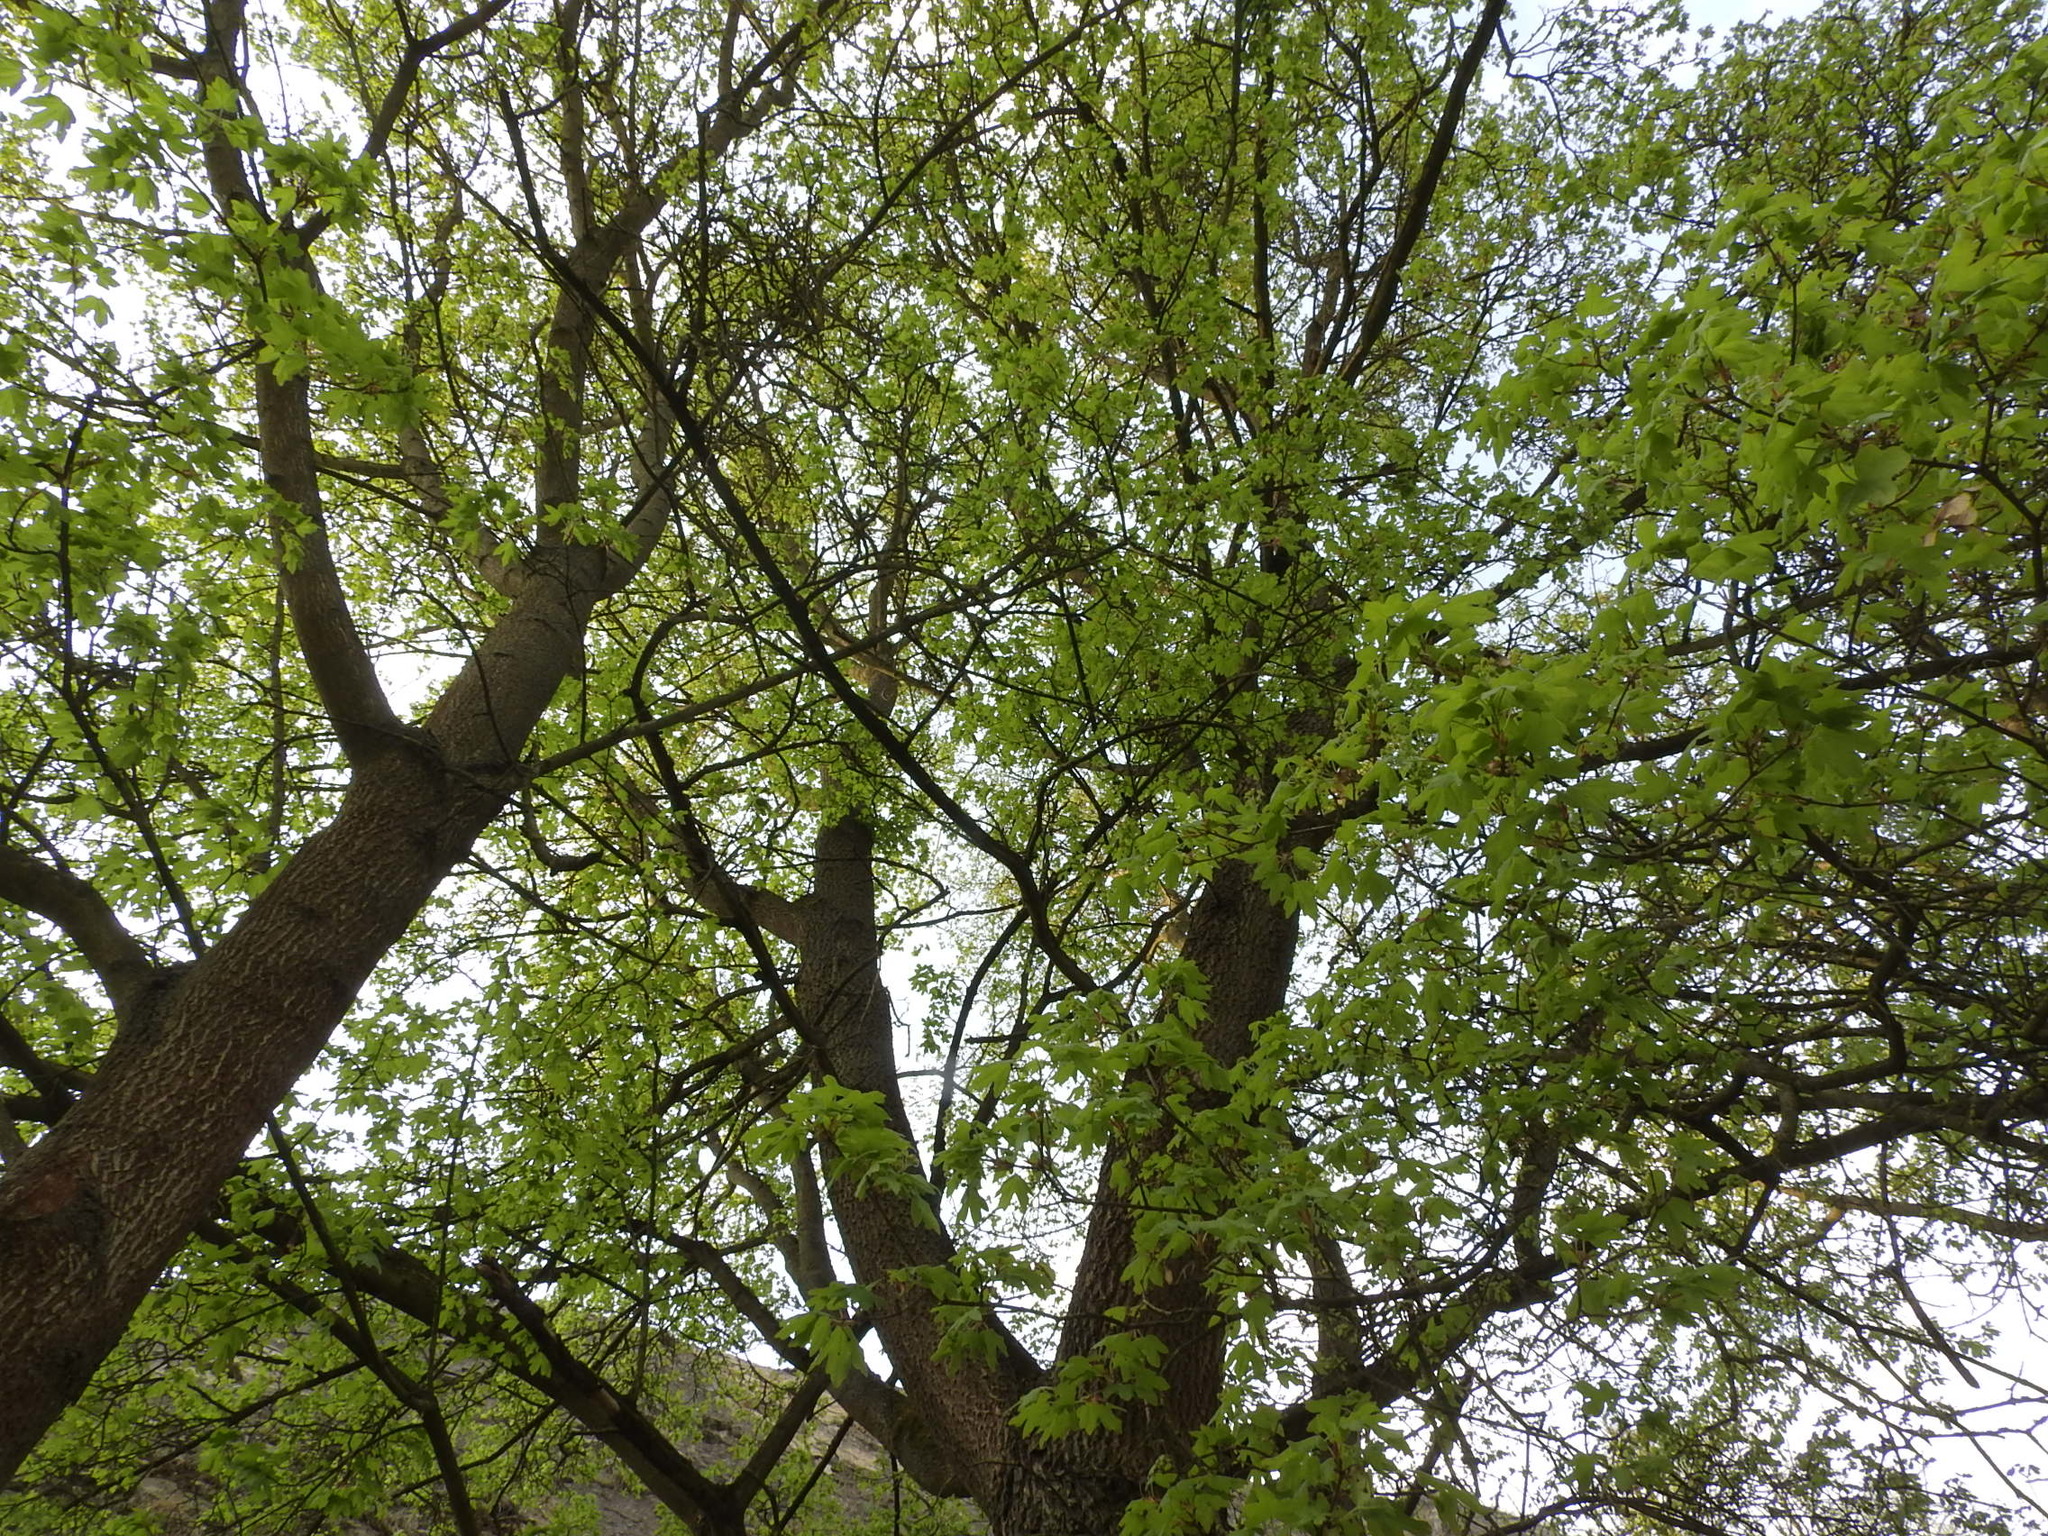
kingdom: Plantae
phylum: Tracheophyta
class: Magnoliopsida
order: Sapindales
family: Sapindaceae
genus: Acer
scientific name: Acer campestre
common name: Field maple
